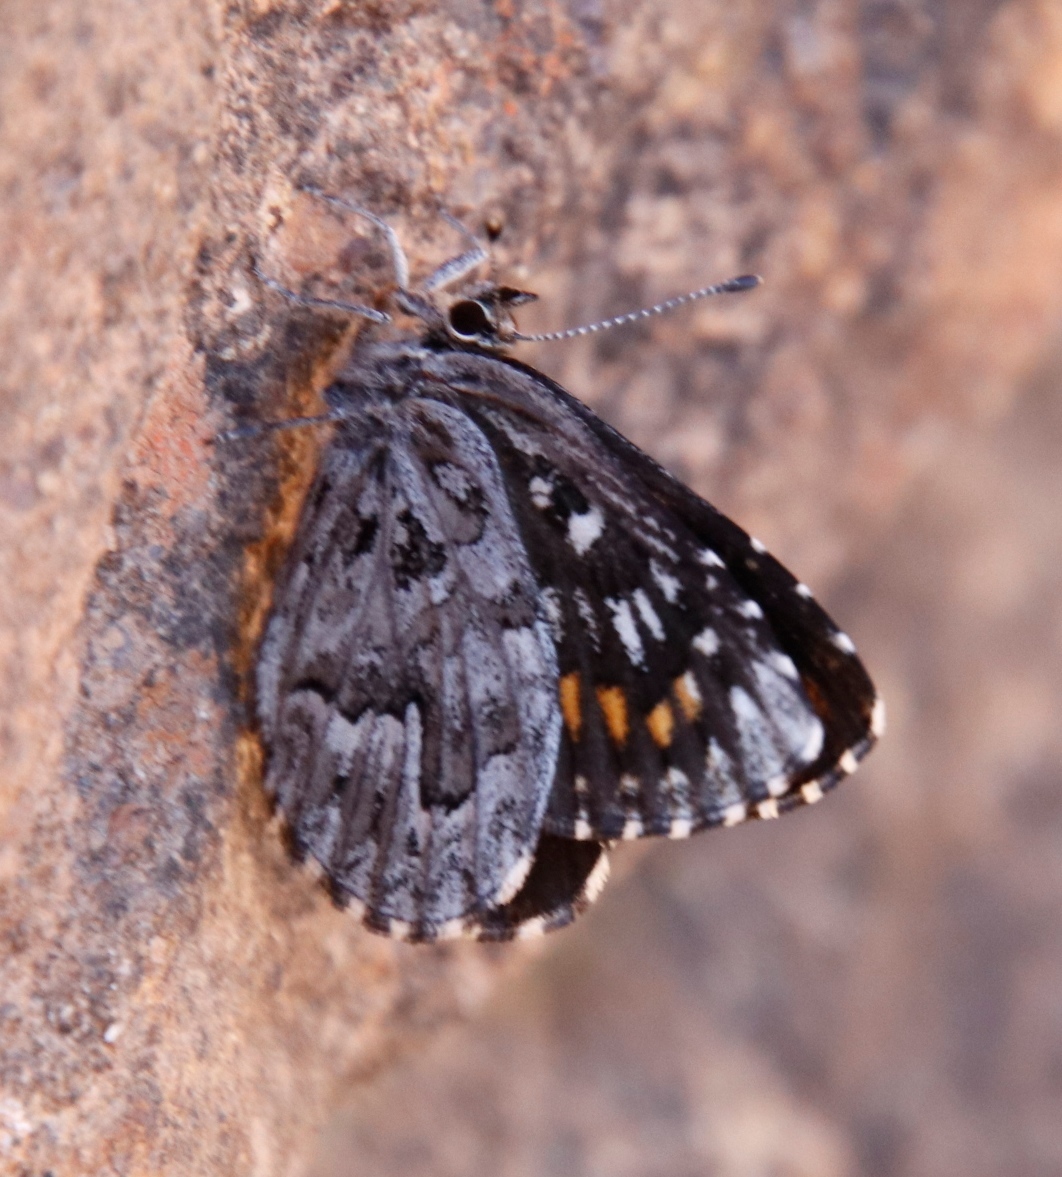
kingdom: Animalia
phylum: Arthropoda
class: Insecta
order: Lepidoptera
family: Lycaenidae
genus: Durbaniopsis
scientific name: Durbaniopsis saga
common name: Boland rocksitter
